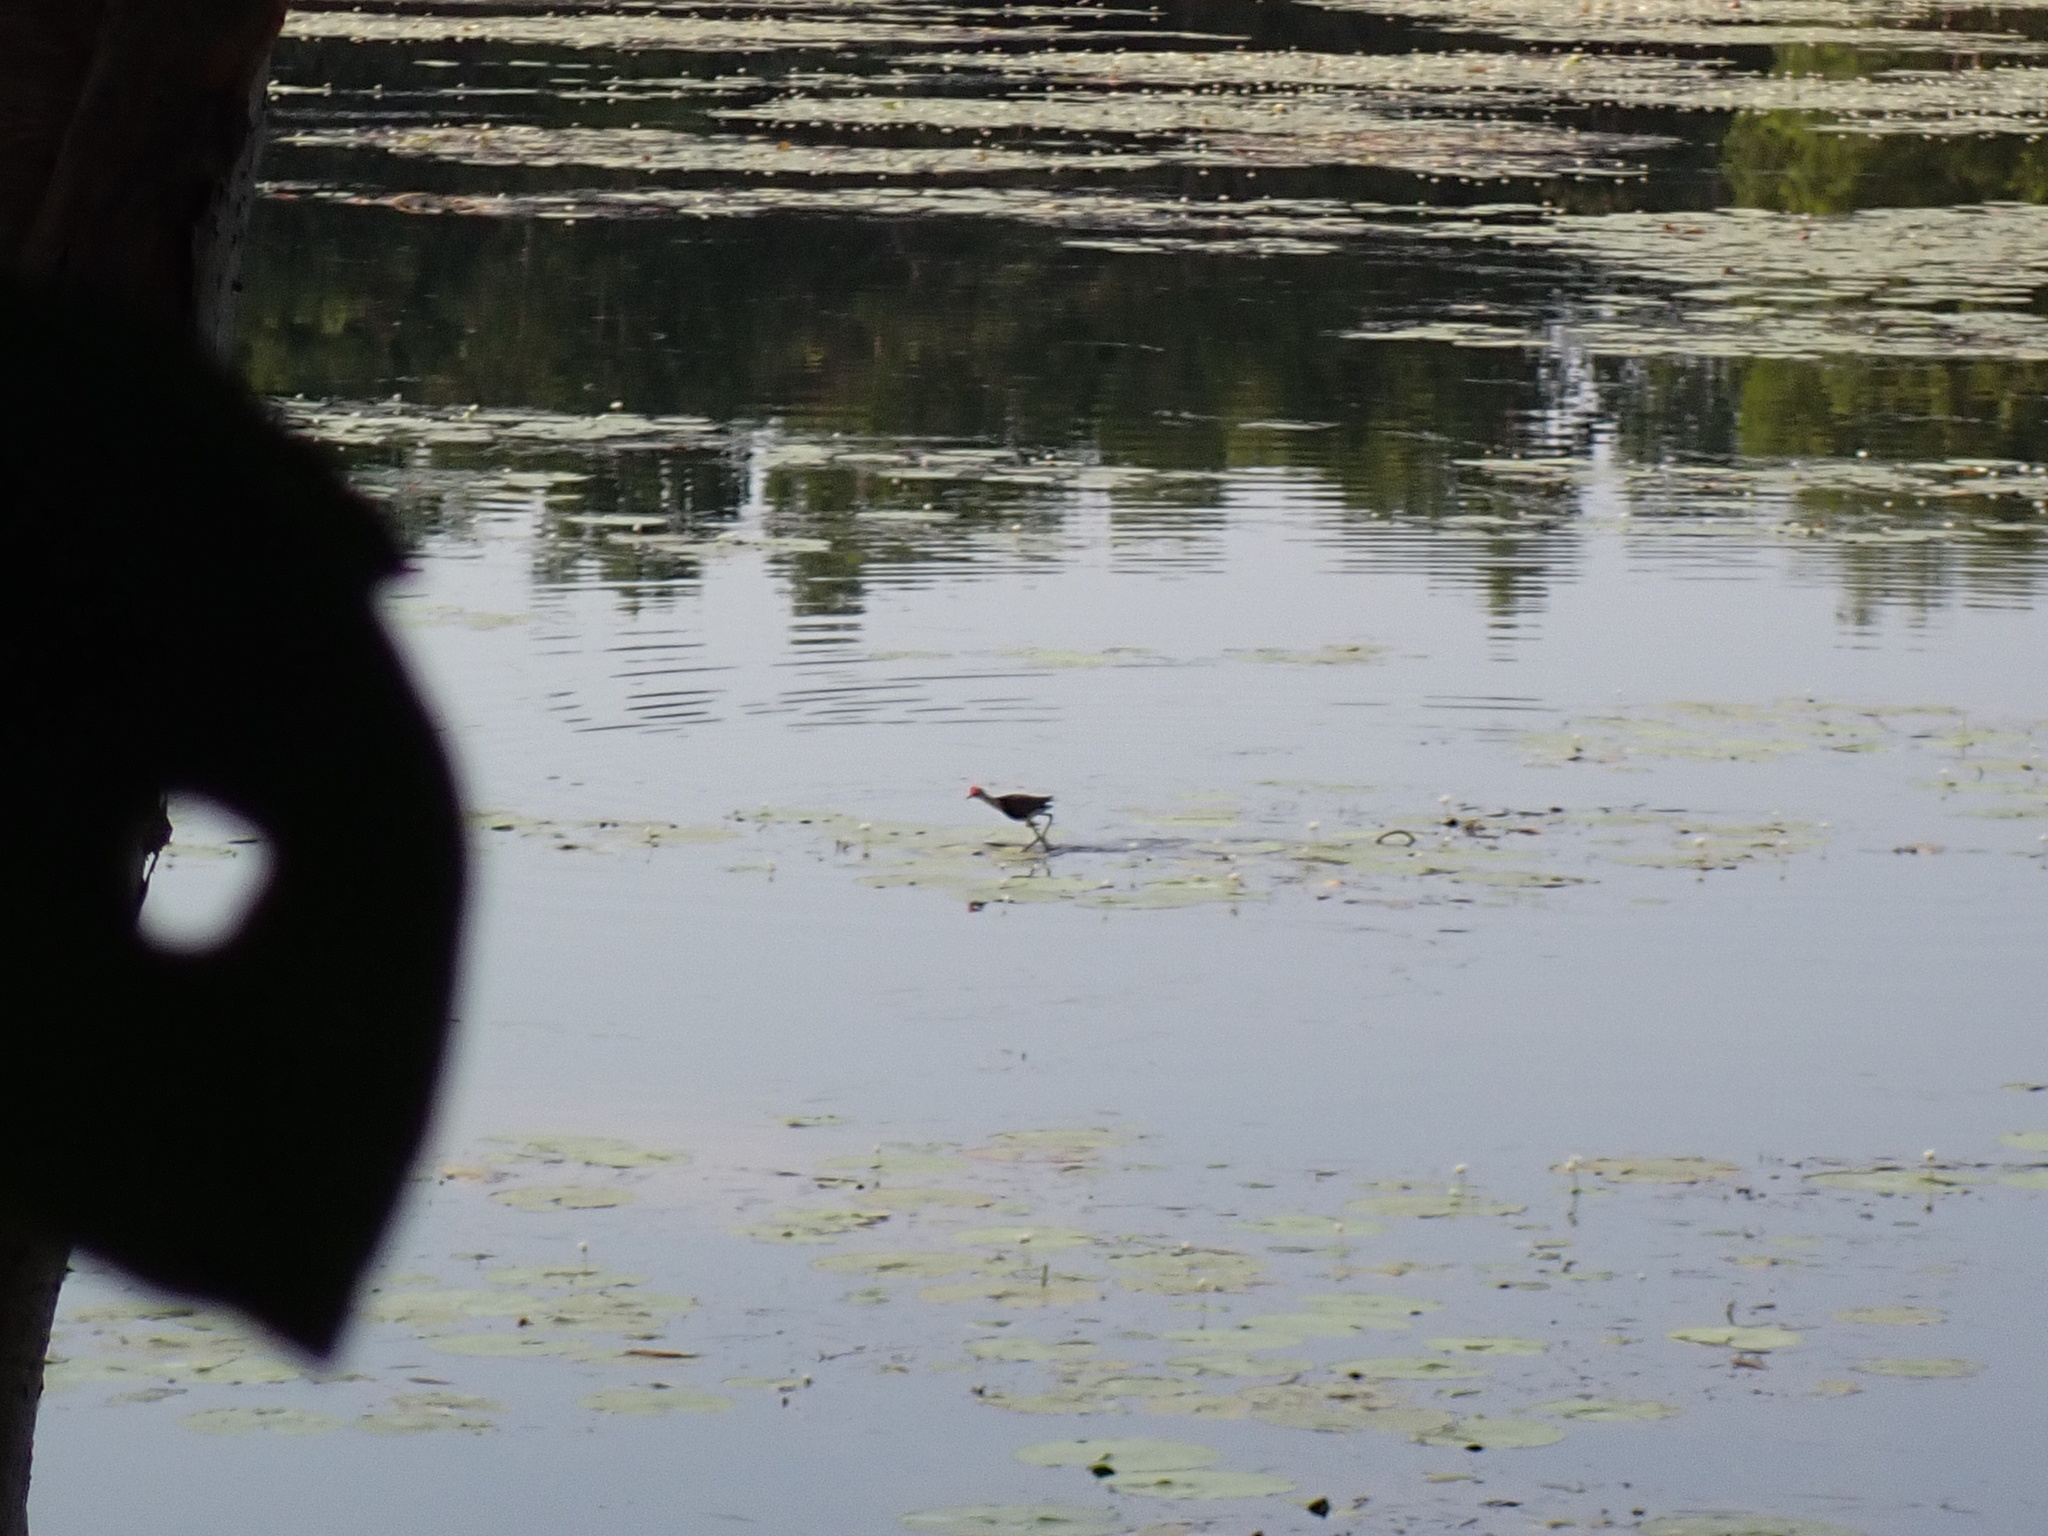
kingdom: Animalia
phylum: Chordata
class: Aves
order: Charadriiformes
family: Jacanidae
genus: Irediparra
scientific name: Irediparra gallinacea
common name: Comb-crested jacana
